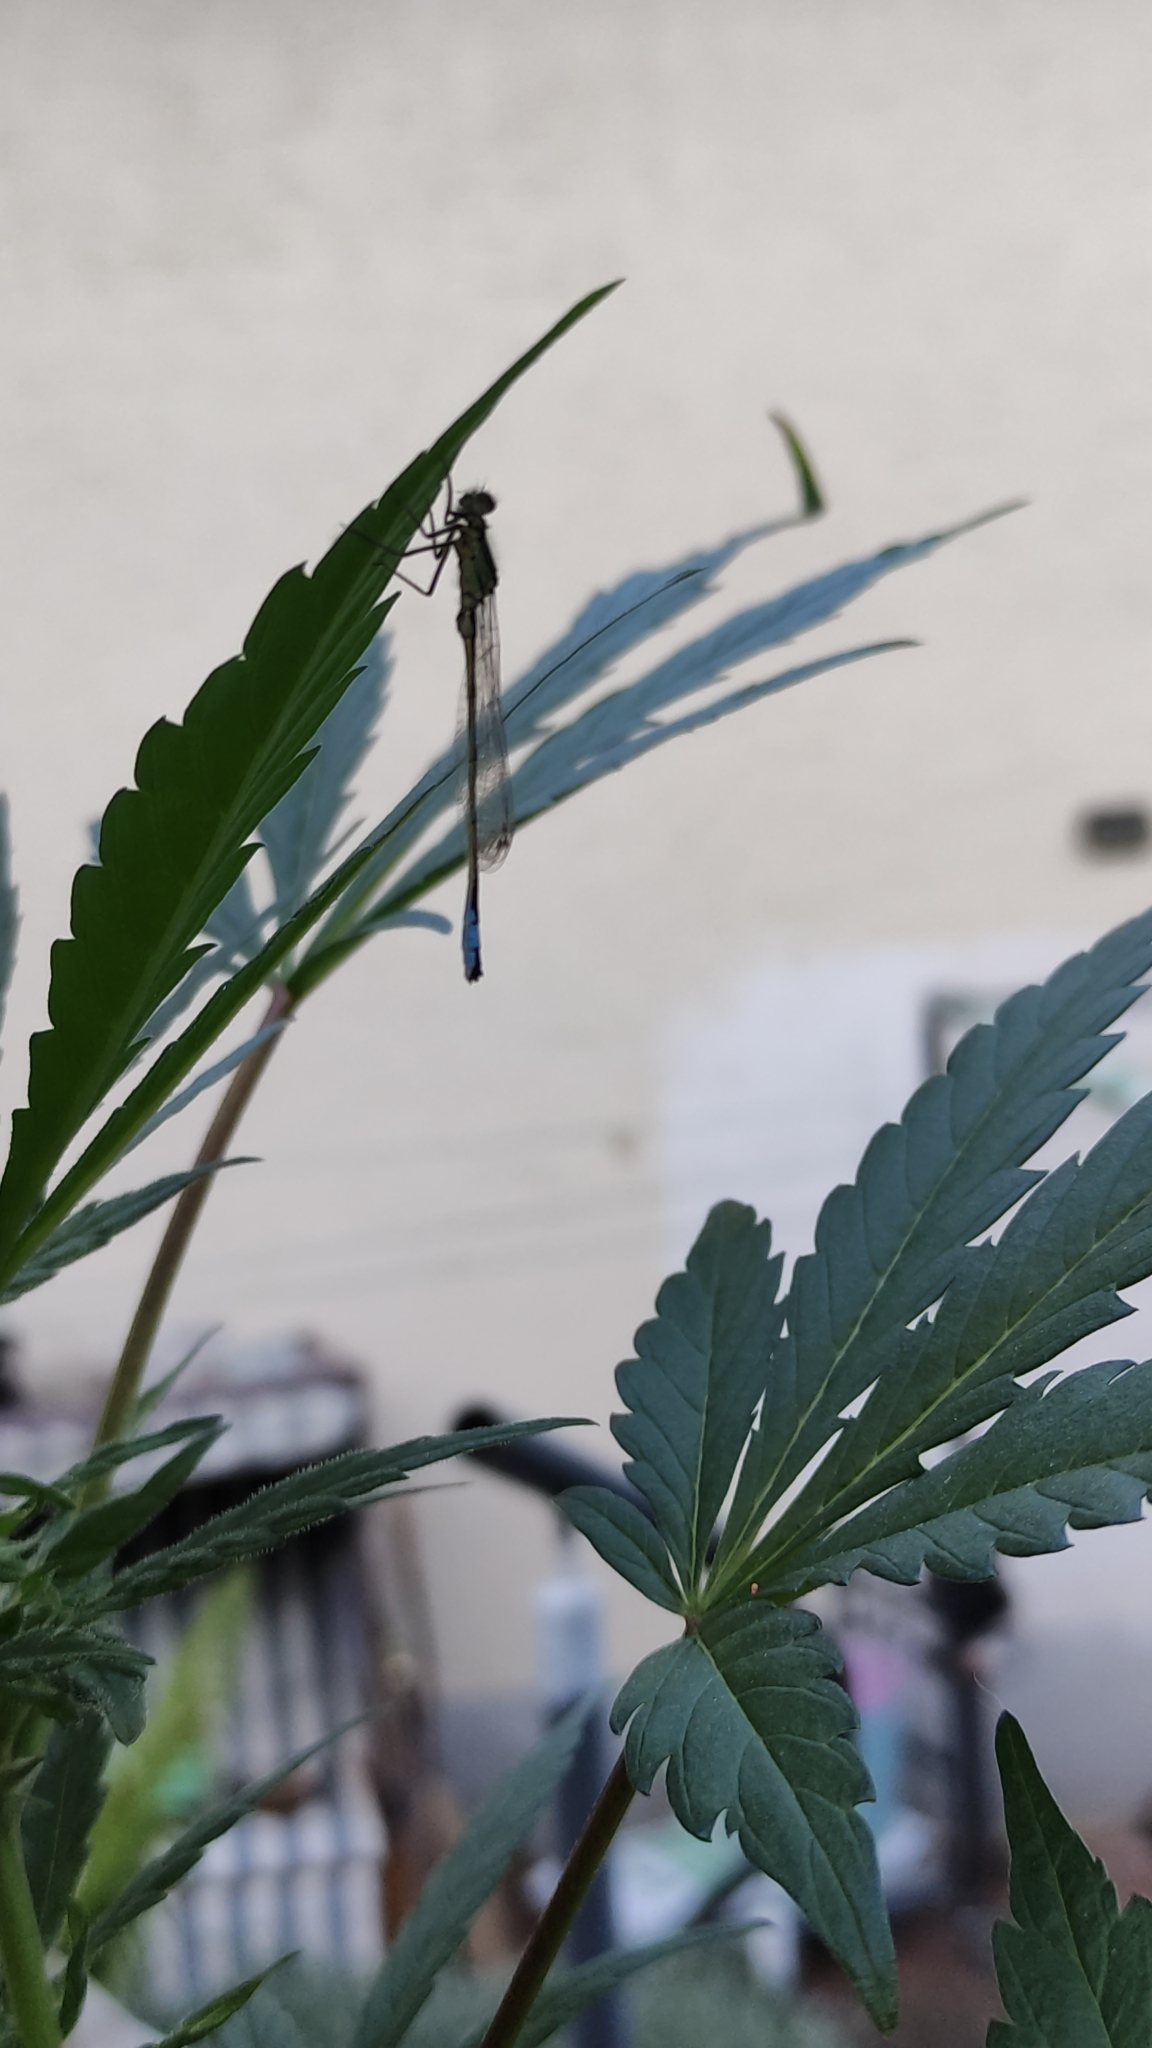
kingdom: Animalia
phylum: Arthropoda
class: Insecta
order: Odonata
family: Coenagrionidae
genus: Ischnura
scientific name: Ischnura elegans
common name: Blue-tailed damselfly
